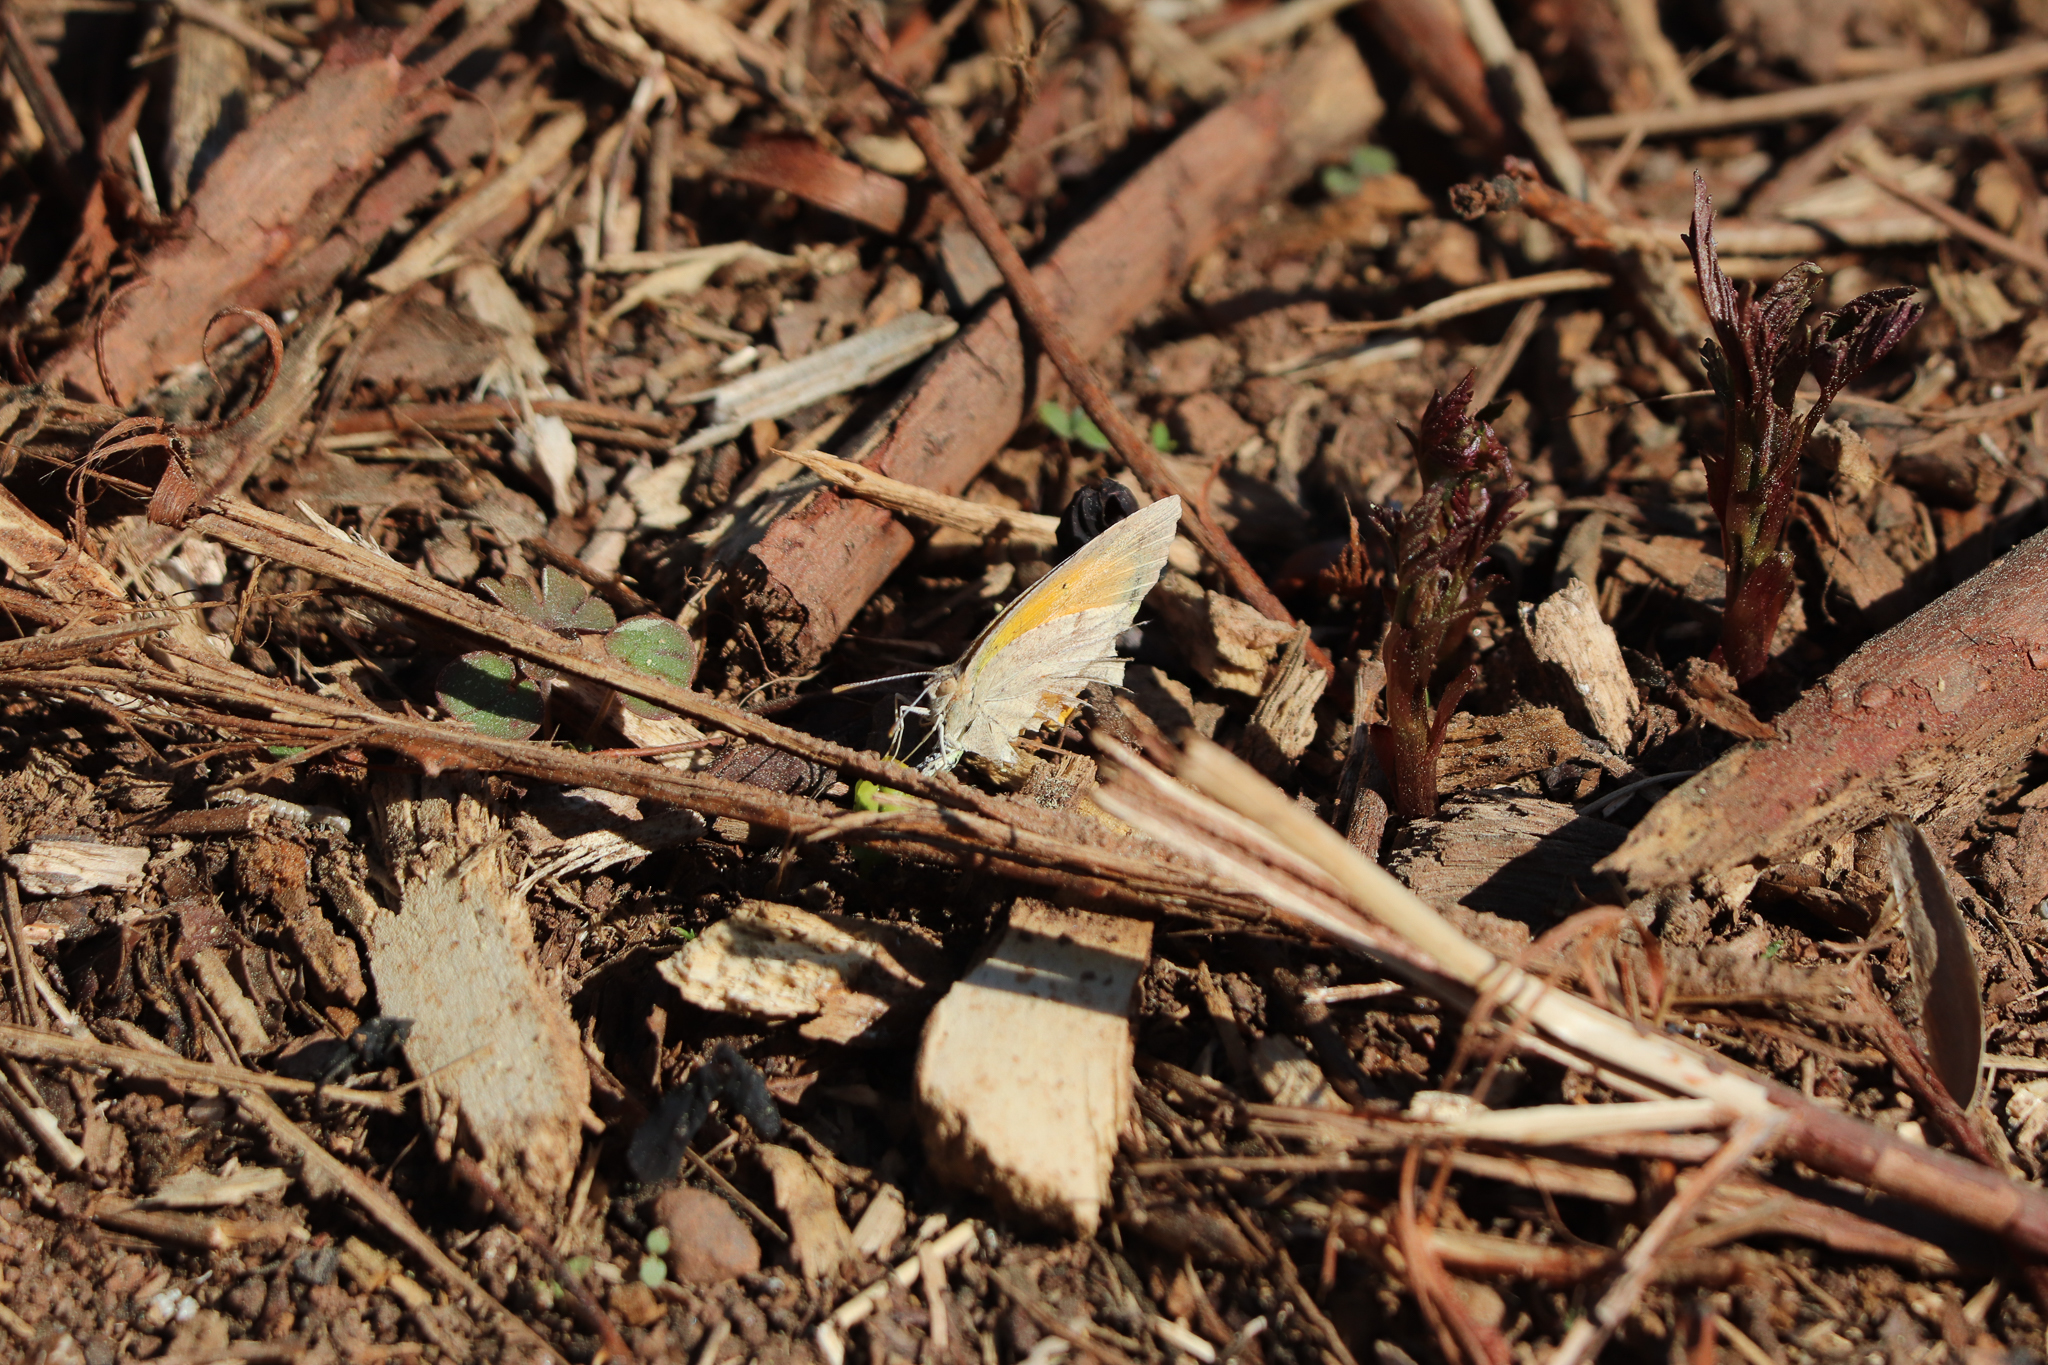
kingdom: Animalia
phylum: Arthropoda
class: Insecta
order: Lepidoptera
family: Pieridae
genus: Abaeis
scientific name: Abaeis nicippe
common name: Sleepy orange
